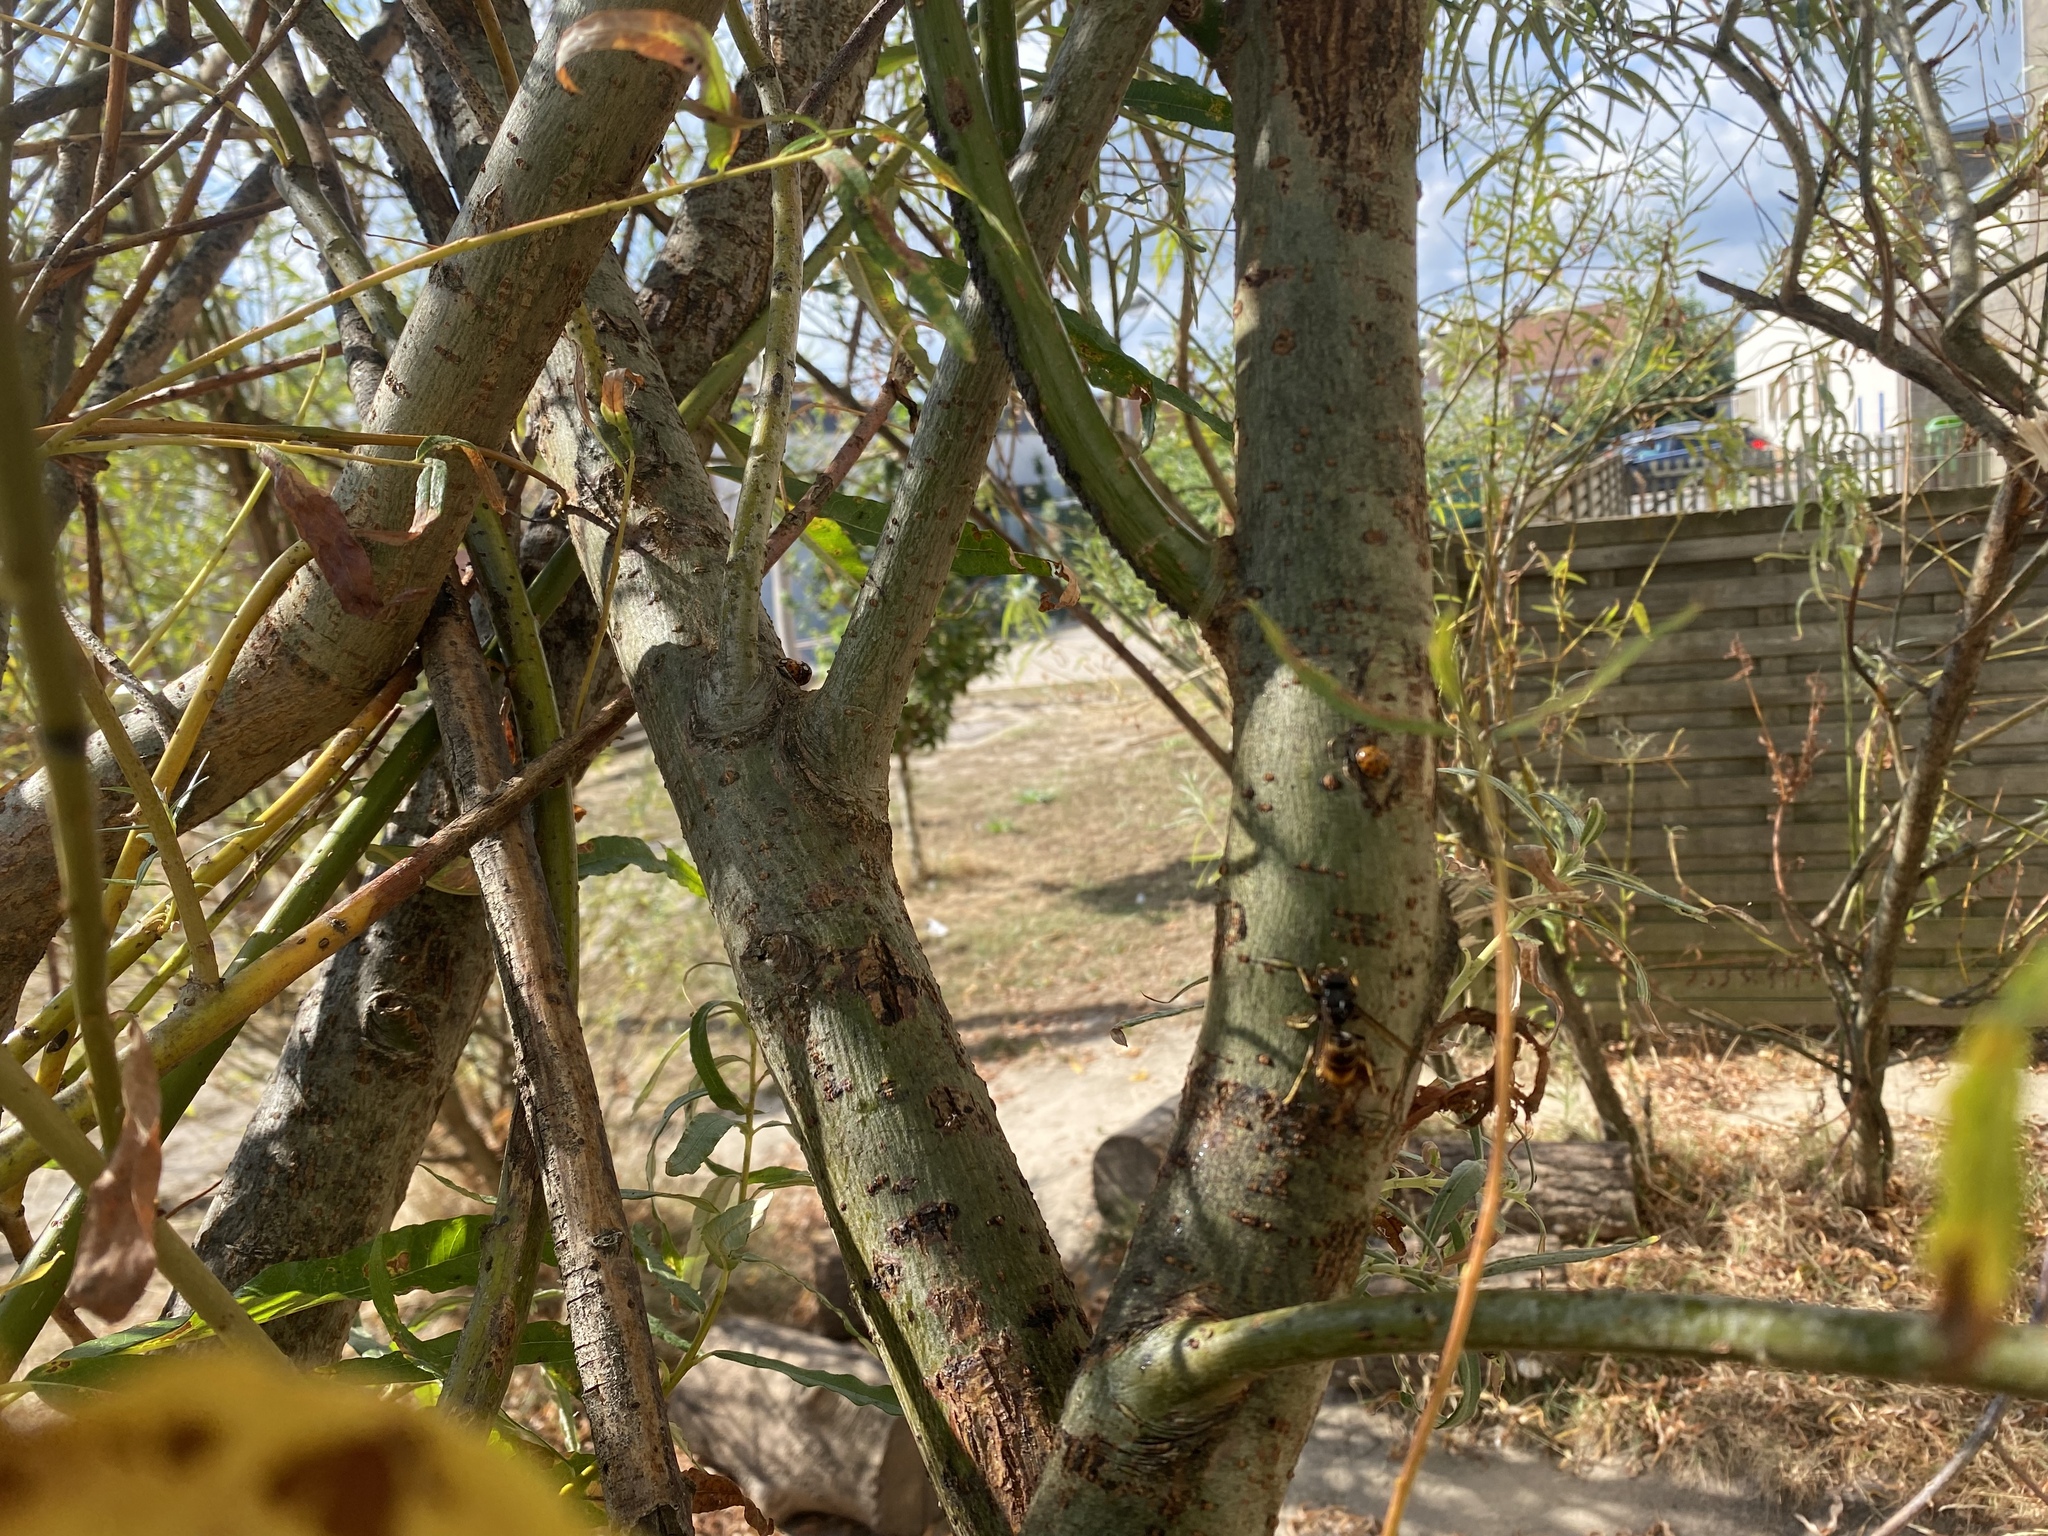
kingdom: Animalia
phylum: Arthropoda
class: Insecta
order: Hymenoptera
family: Vespidae
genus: Vespa
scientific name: Vespa velutina
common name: Asian hornet
